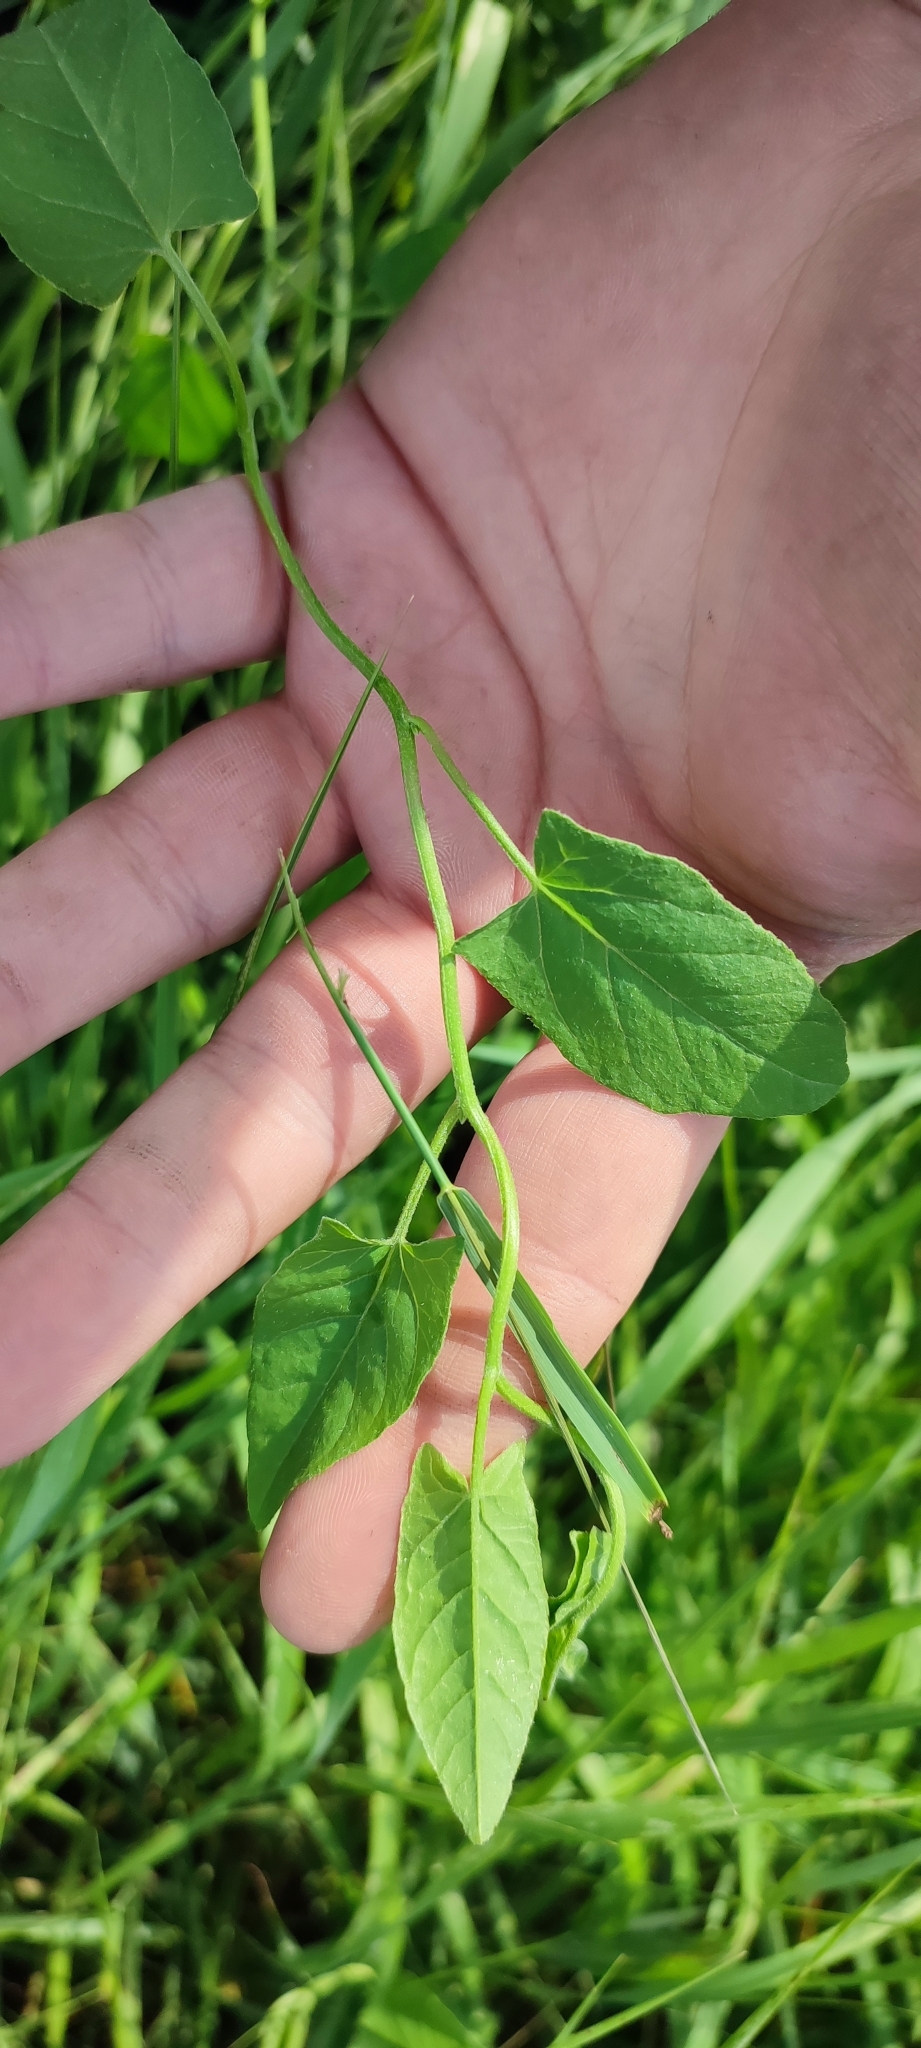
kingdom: Plantae
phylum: Tracheophyta
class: Magnoliopsida
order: Solanales
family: Convolvulaceae
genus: Convolvulus
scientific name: Convolvulus arvensis
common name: Field bindweed
